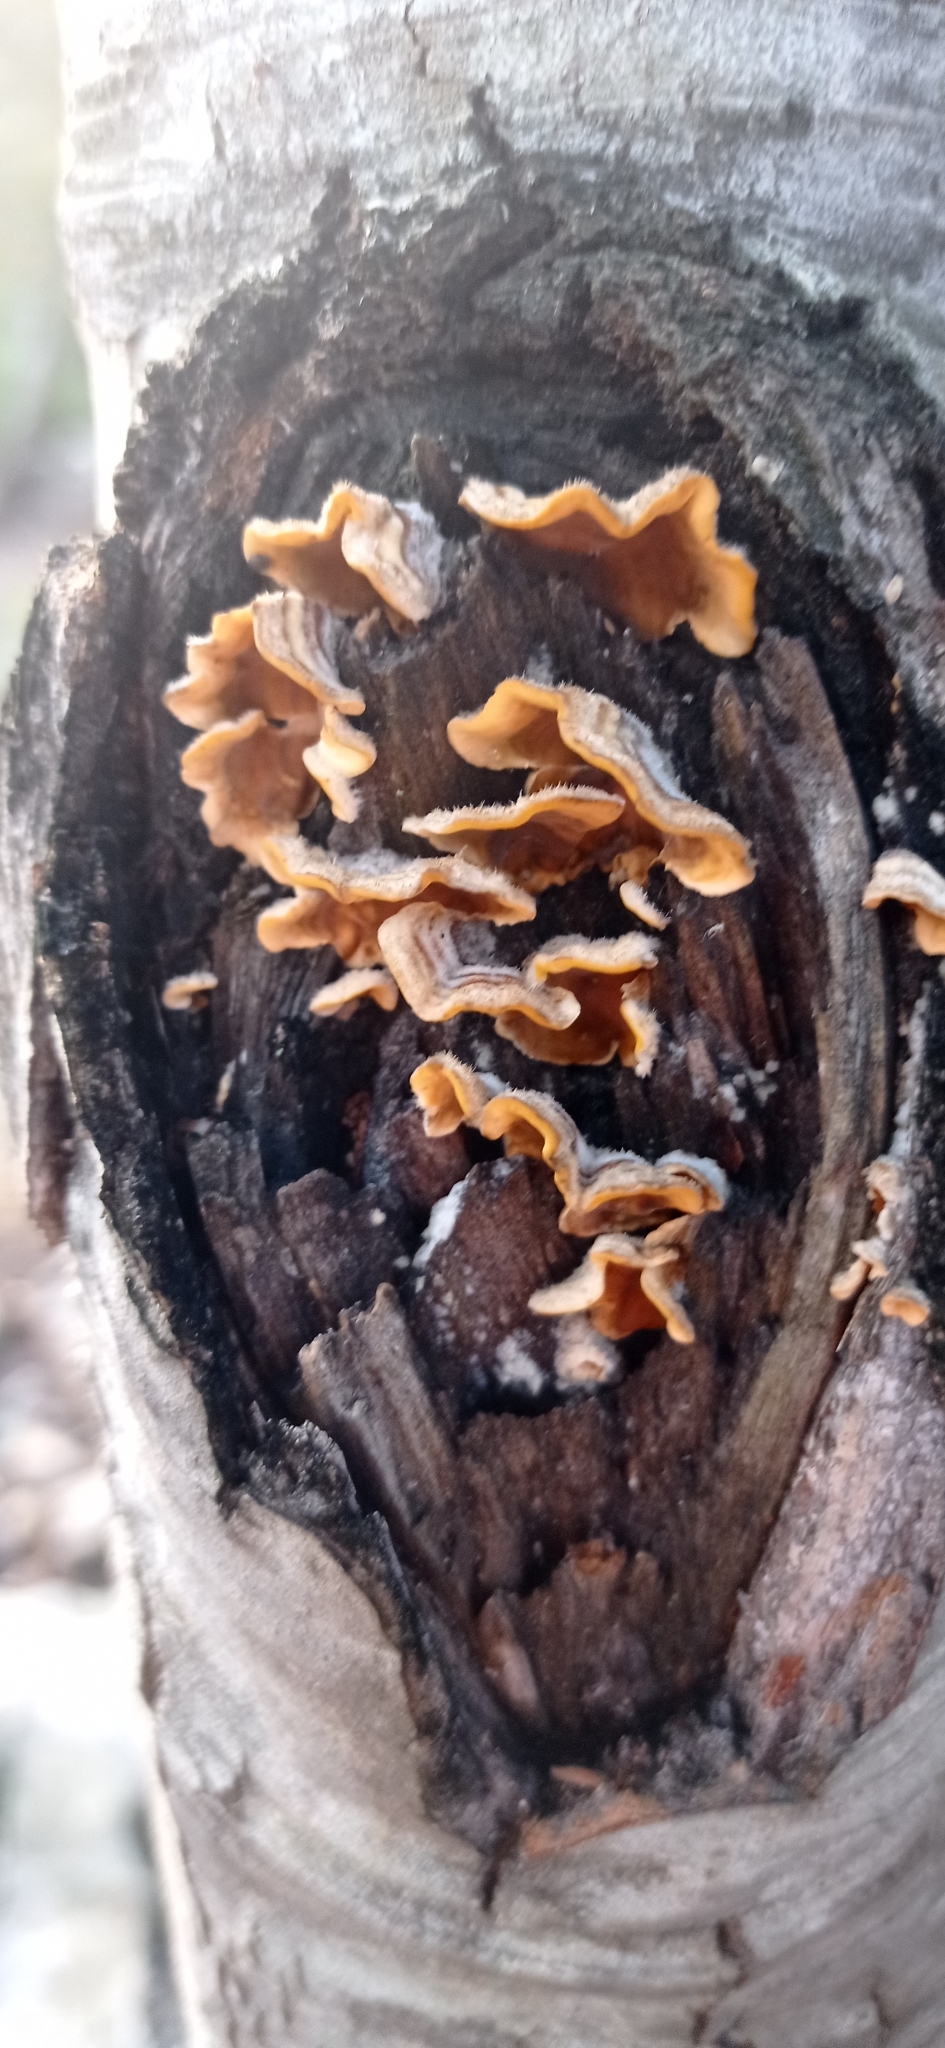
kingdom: Fungi
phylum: Basidiomycota
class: Agaricomycetes
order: Russulales
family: Stereaceae
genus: Stereum
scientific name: Stereum hirsutum
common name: Hairy curtain crust
